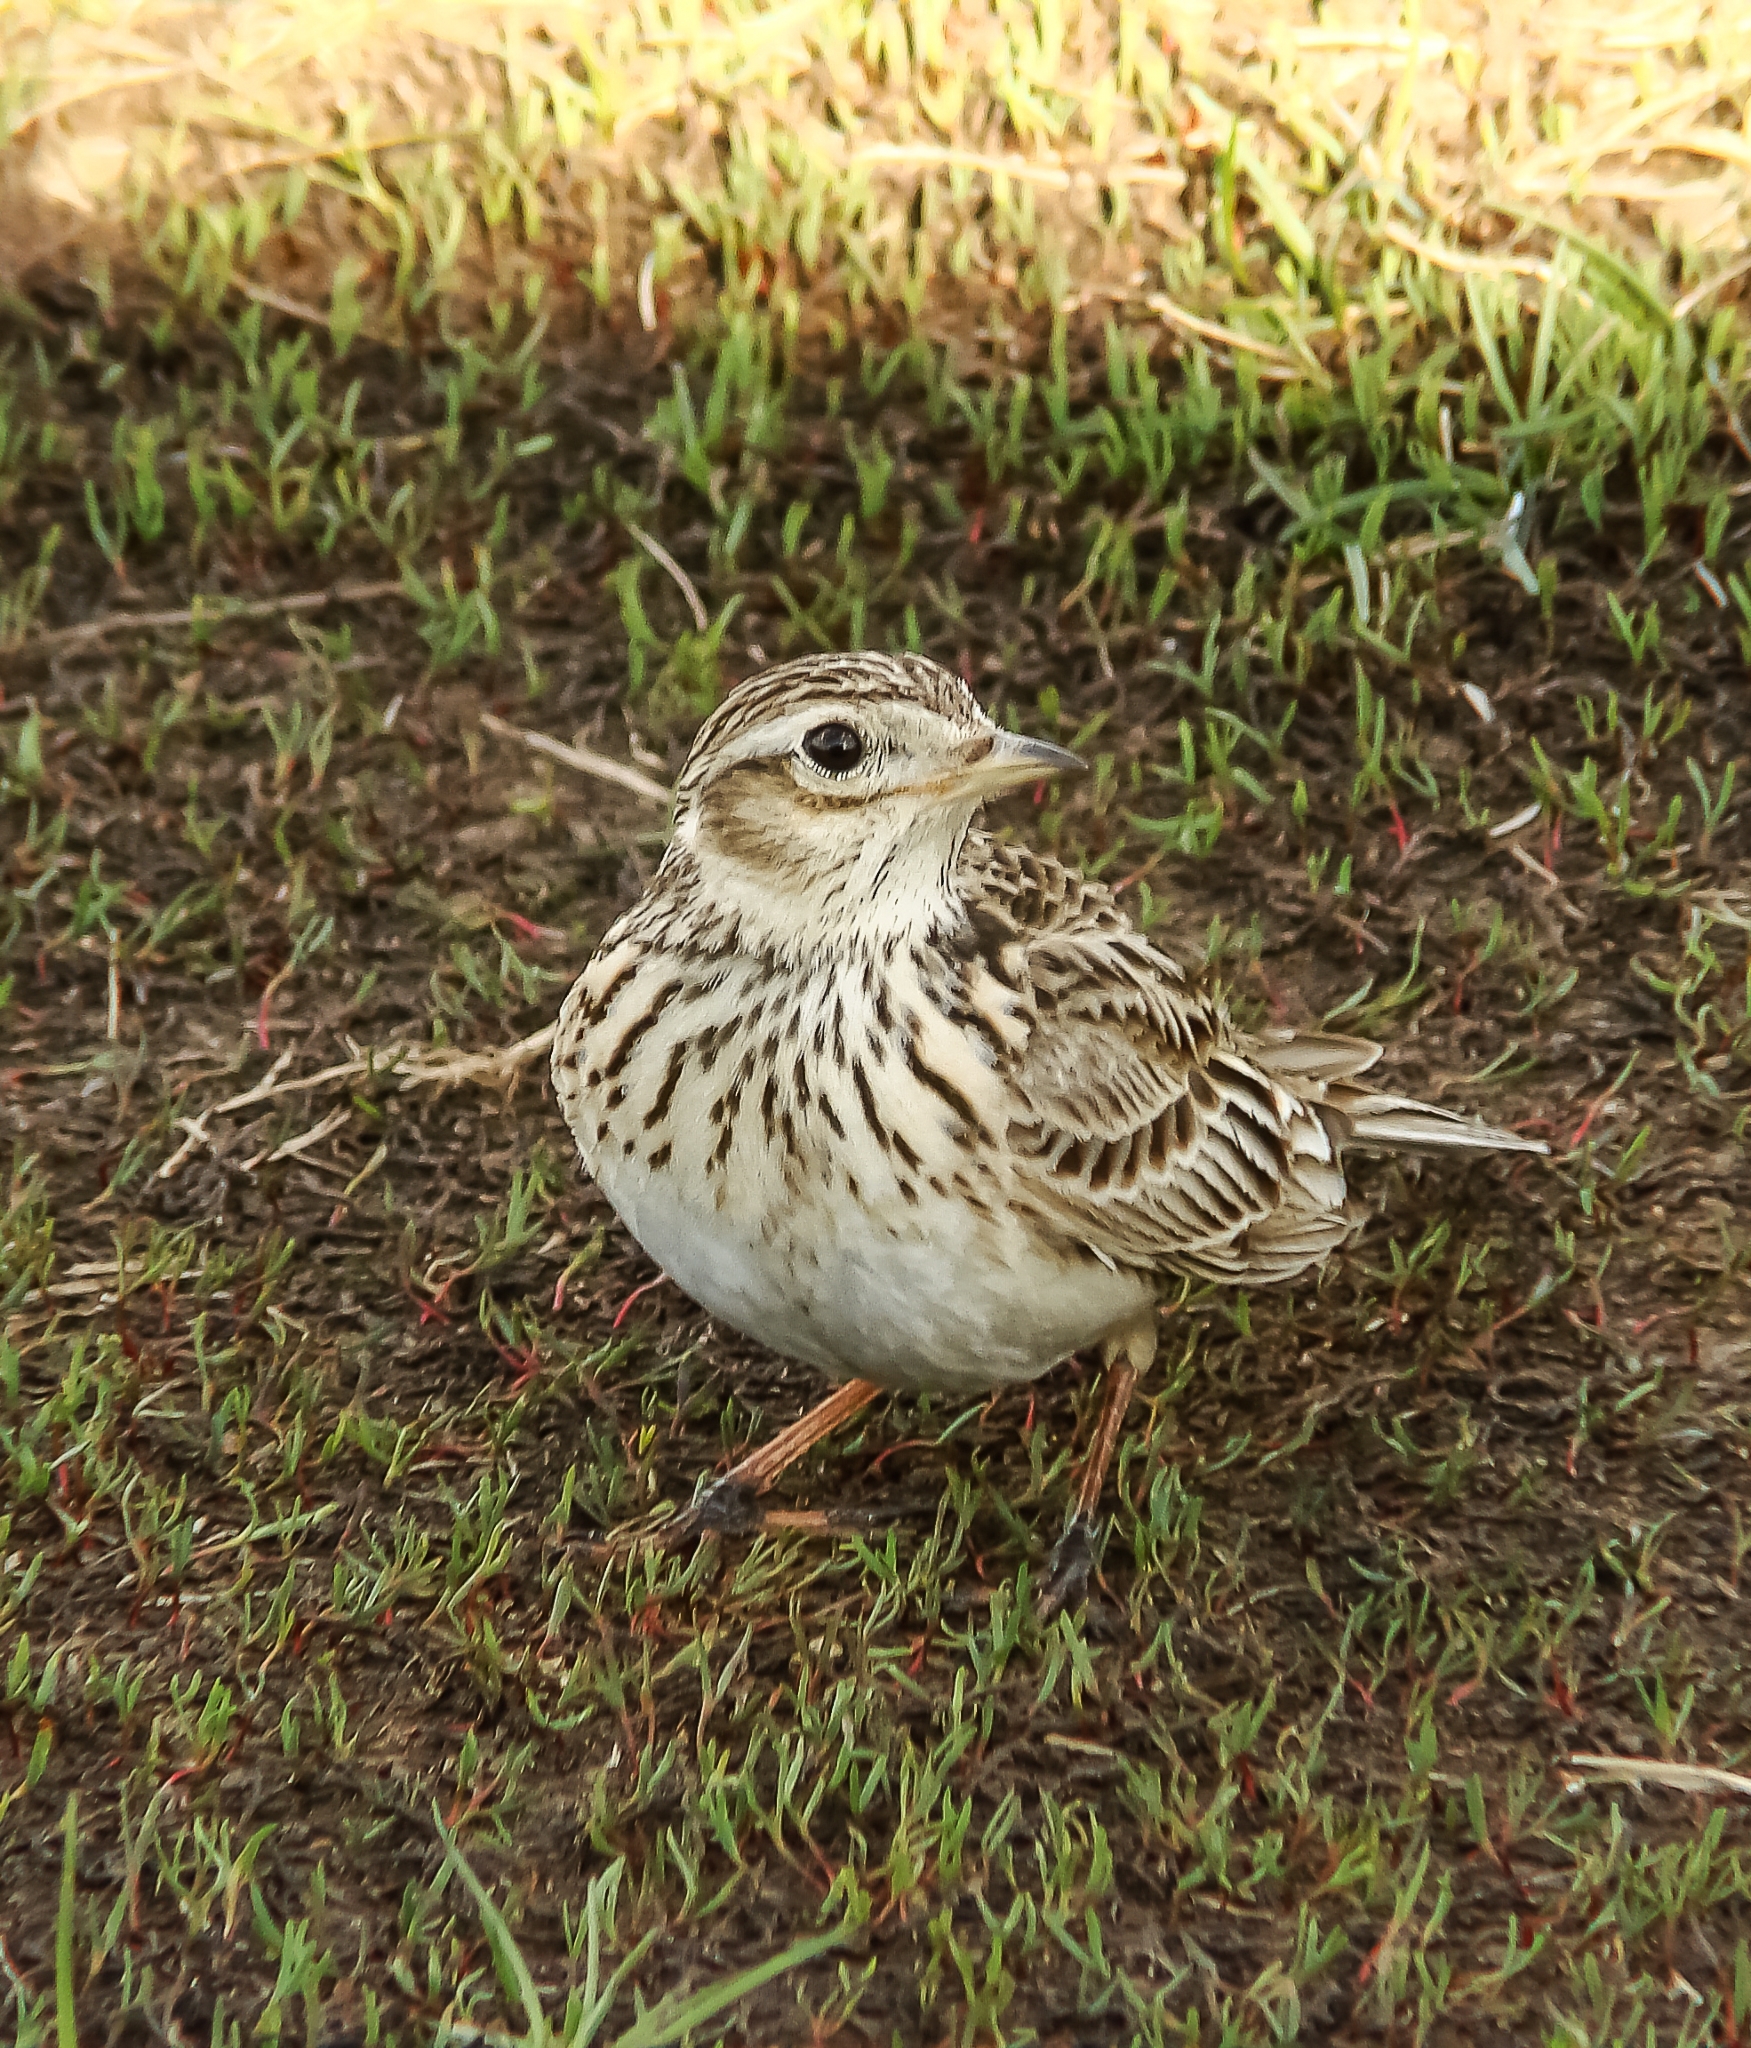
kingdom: Animalia
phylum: Chordata
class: Aves
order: Passeriformes
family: Alaudidae
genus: Alauda
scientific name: Alauda arvensis
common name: Eurasian skylark
